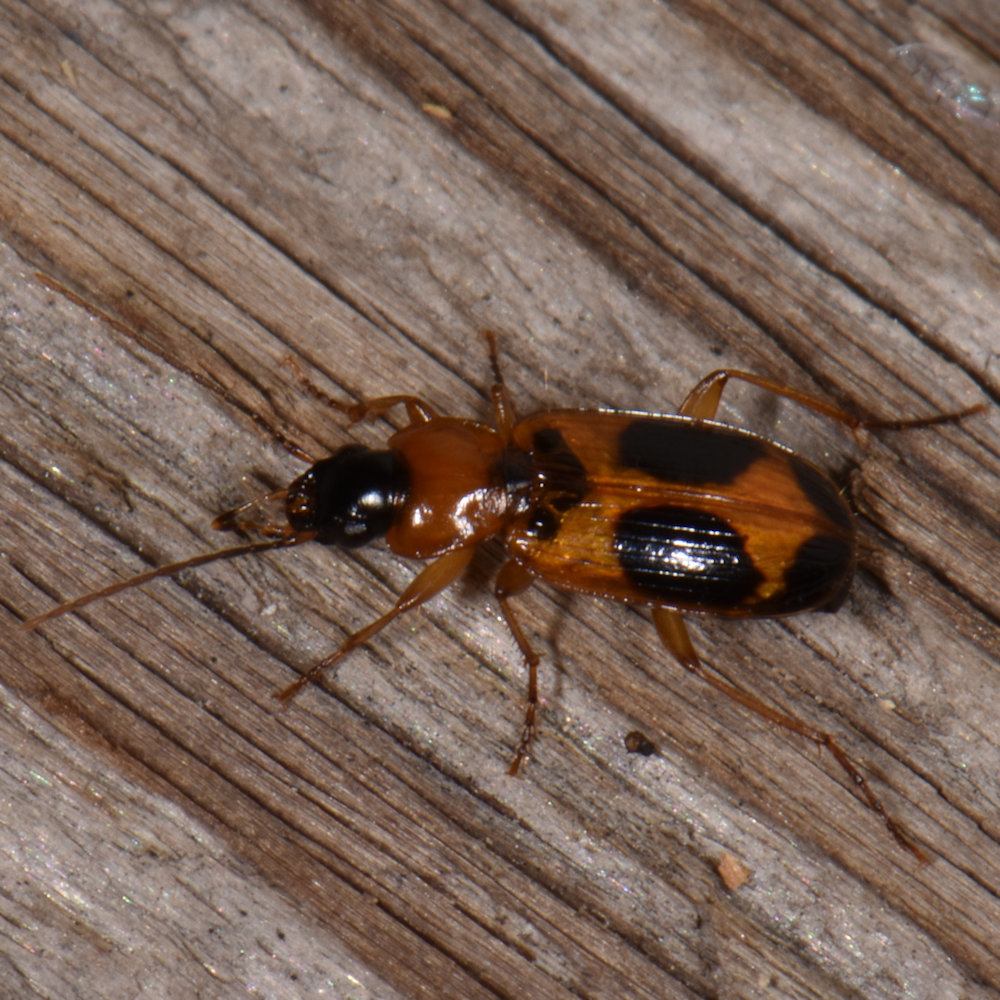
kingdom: Animalia
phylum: Arthropoda
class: Insecta
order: Coleoptera
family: Carabidae
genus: Badister
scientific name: Badister neopulchellus
